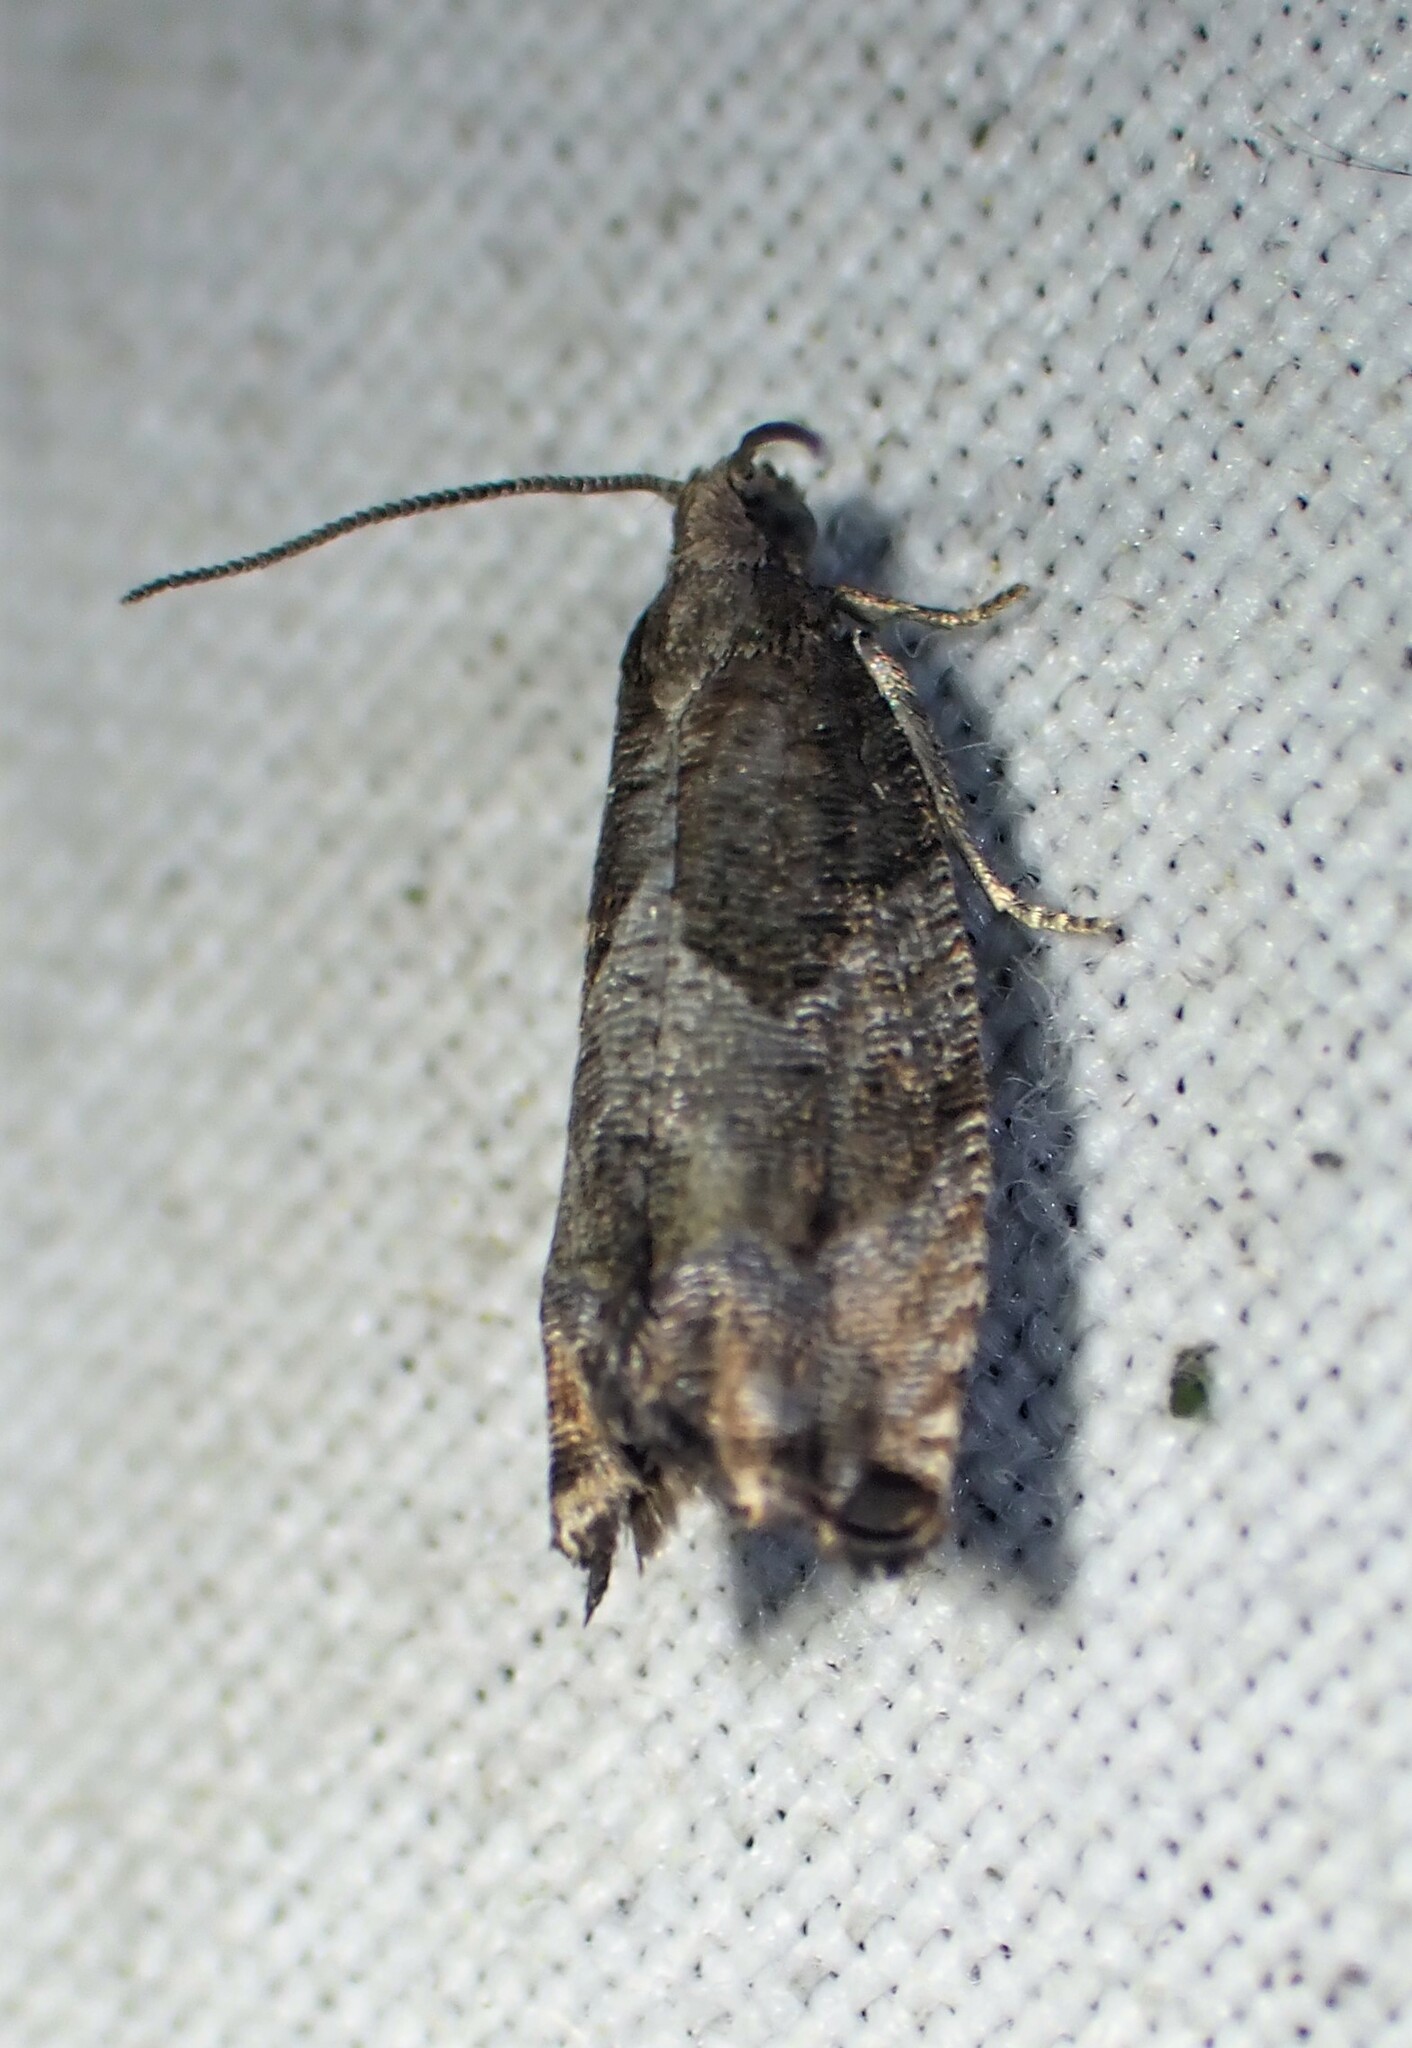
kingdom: Animalia
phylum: Arthropoda
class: Insecta
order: Lepidoptera
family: Tortricidae
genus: Gypsonoma
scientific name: Gypsonoma salicicolana
